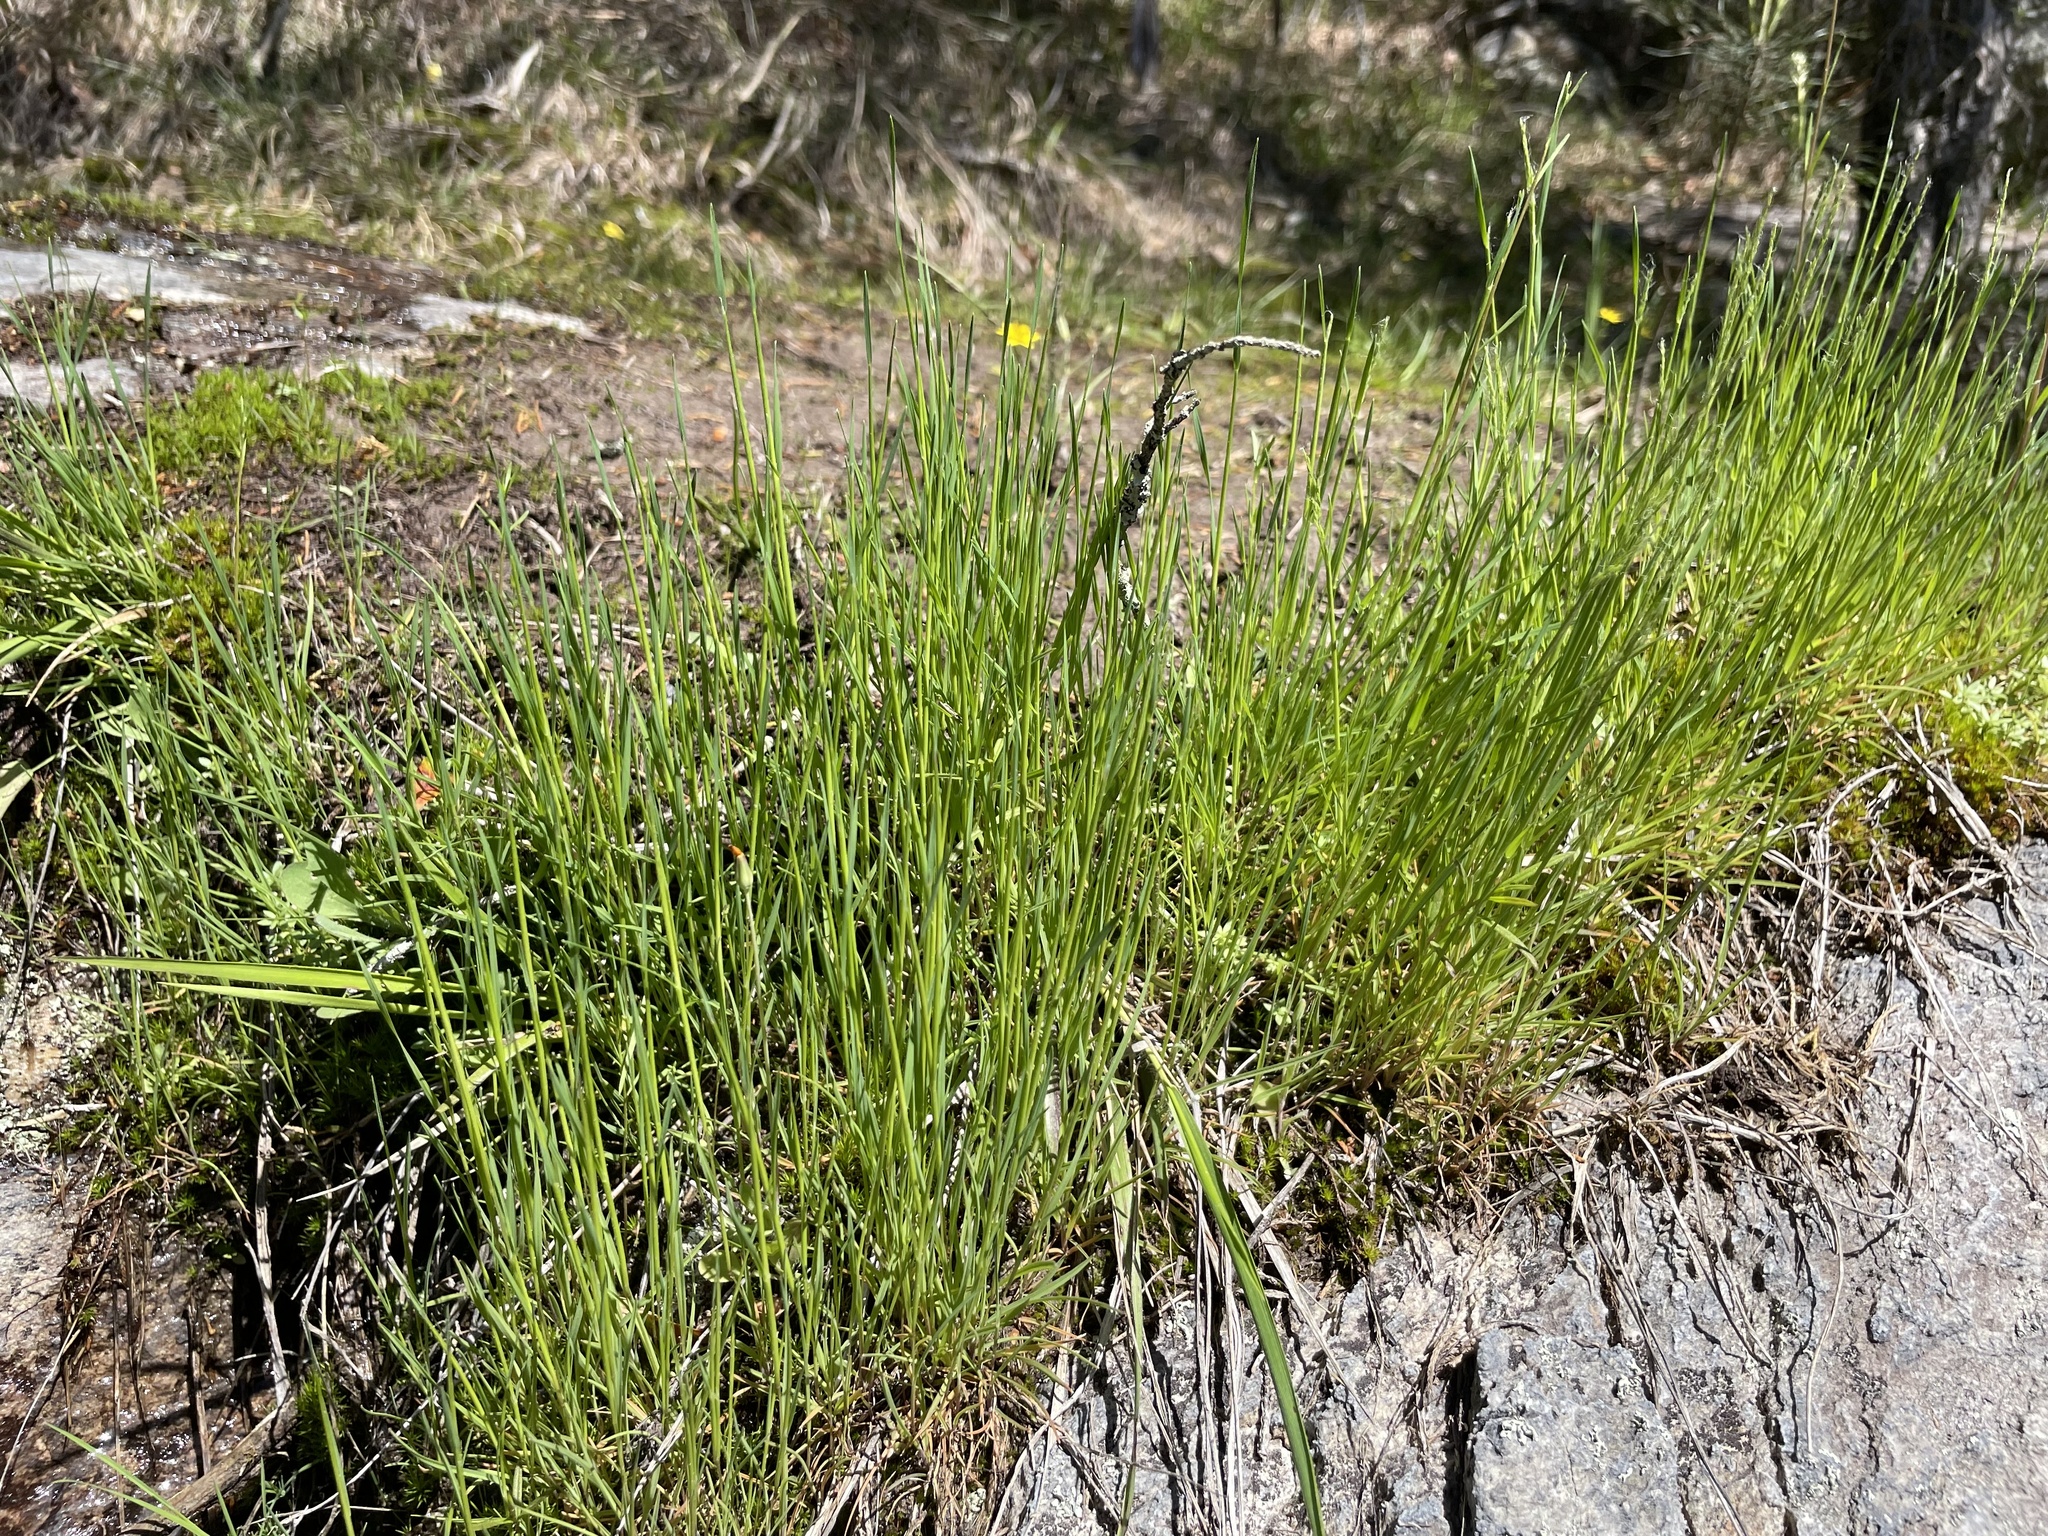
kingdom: Plantae
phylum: Tracheophyta
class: Liliopsida
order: Poales
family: Poaceae
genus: Agrostis
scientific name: Agrostis elliottiana
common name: Elliott's bent
